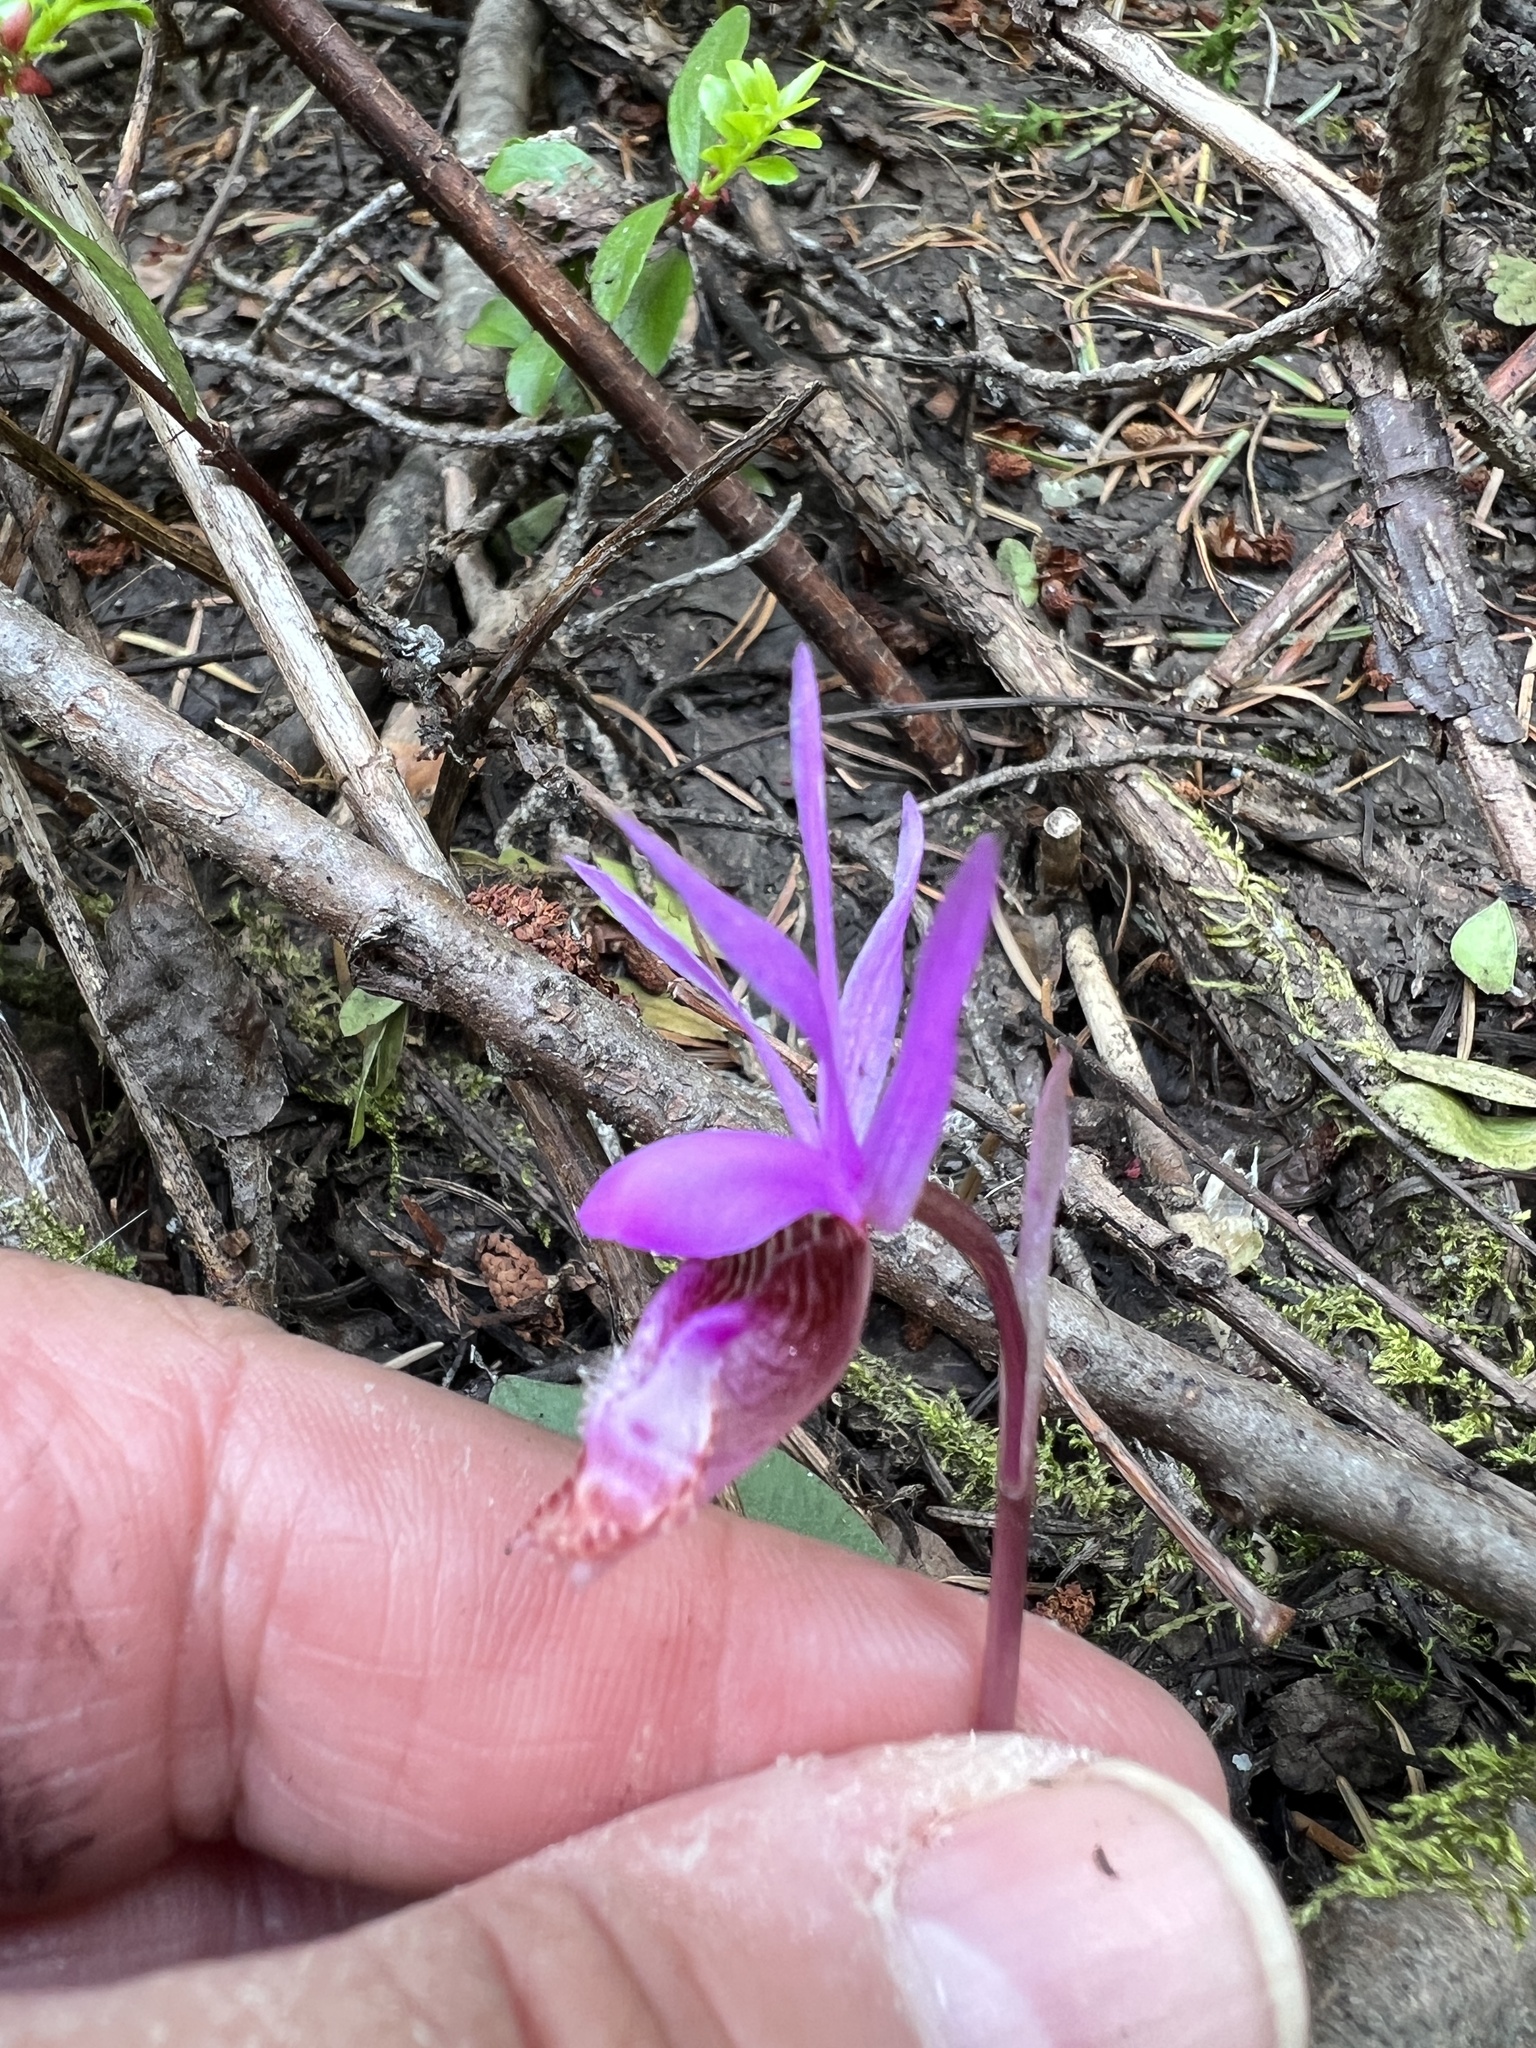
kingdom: Plantae
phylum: Tracheophyta
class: Liliopsida
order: Asparagales
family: Orchidaceae
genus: Calypso
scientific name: Calypso bulbosa
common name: Calypso
